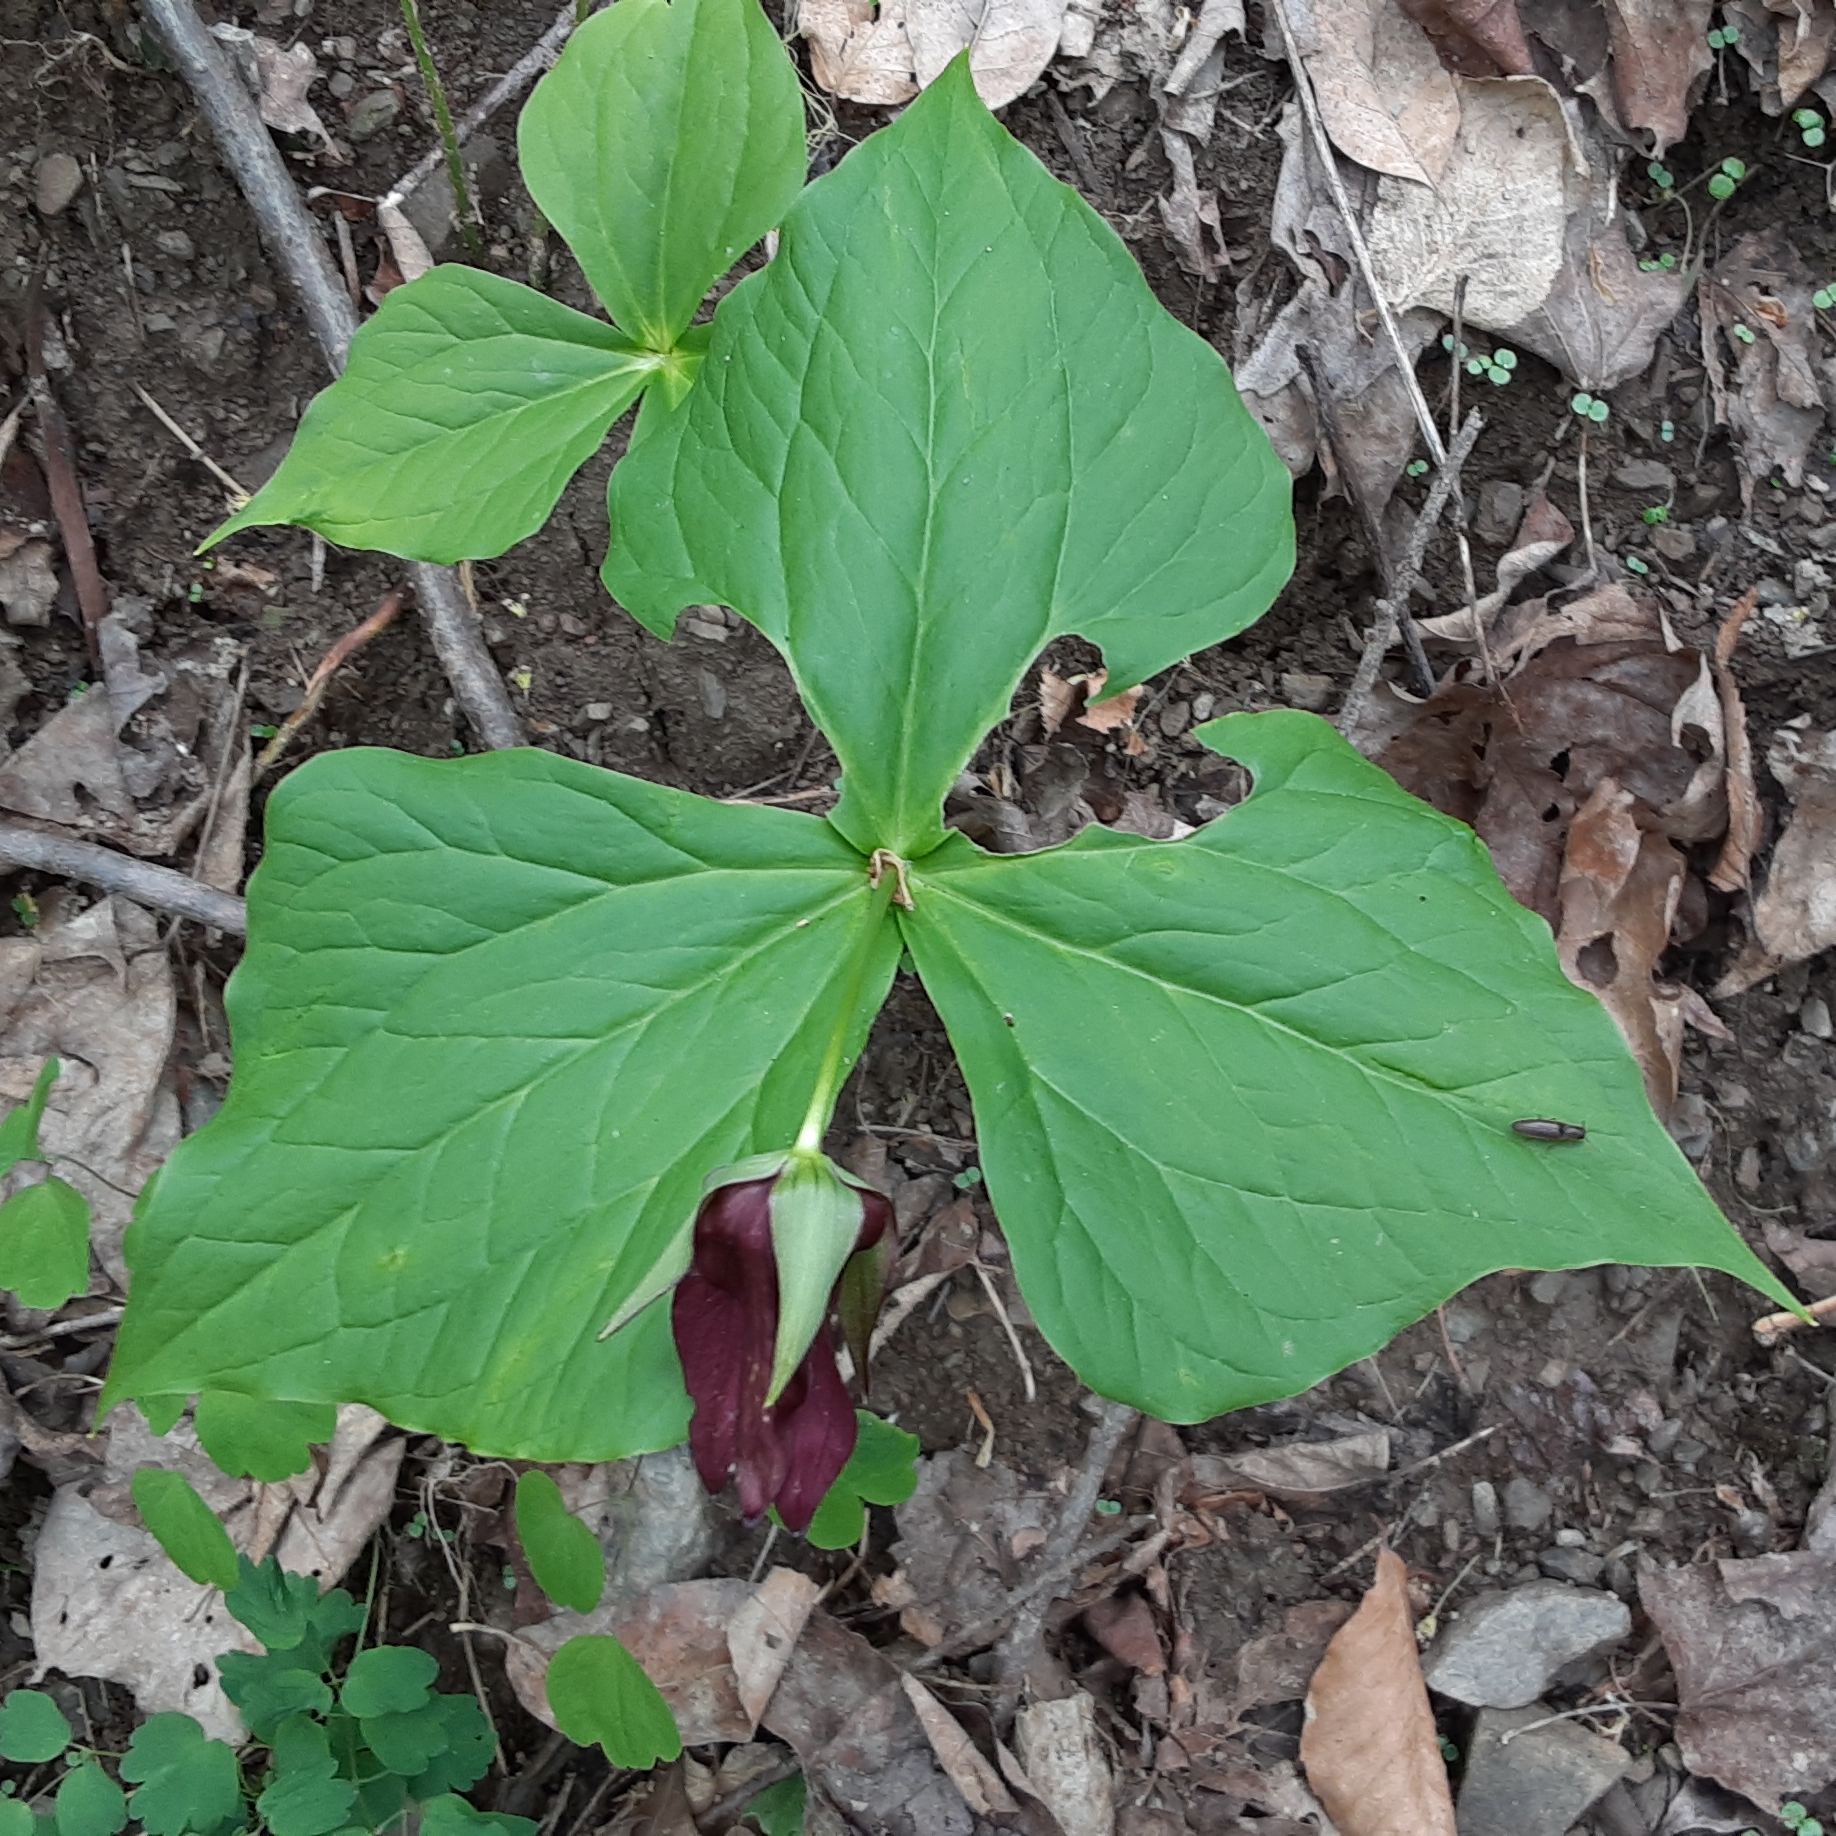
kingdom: Plantae
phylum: Tracheophyta
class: Liliopsida
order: Liliales
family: Melanthiaceae
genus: Trillium
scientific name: Trillium erectum
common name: Purple trillium
